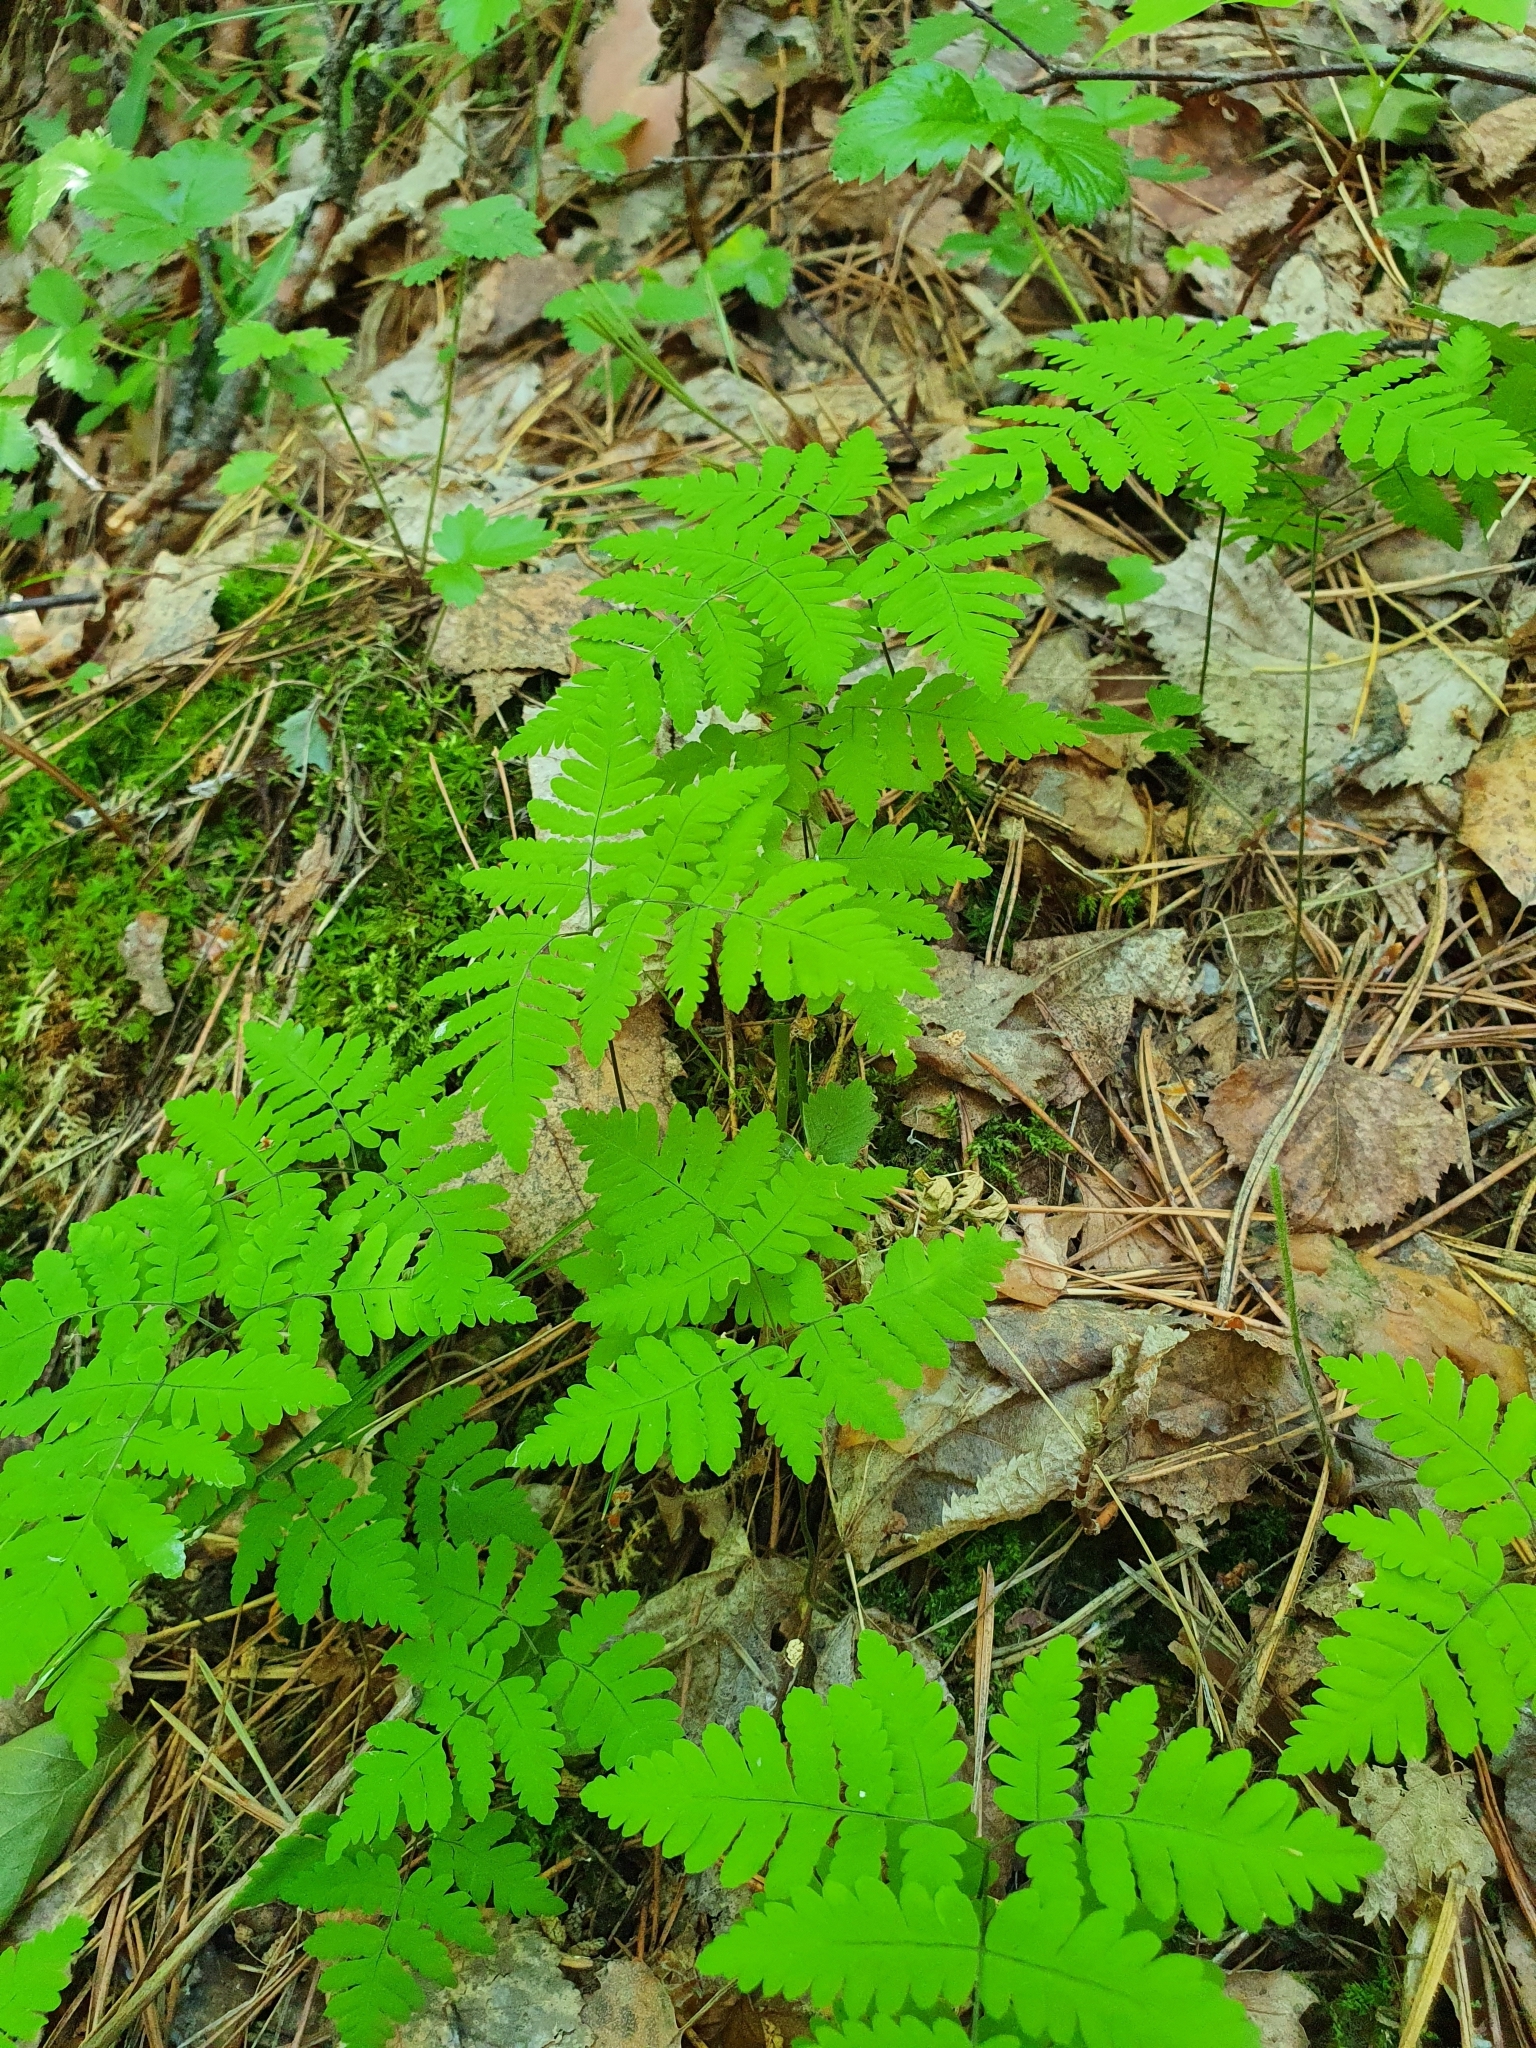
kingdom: Plantae
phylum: Tracheophyta
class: Polypodiopsida
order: Polypodiales
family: Cystopteridaceae
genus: Gymnocarpium
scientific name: Gymnocarpium dryopteris
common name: Oak fern
